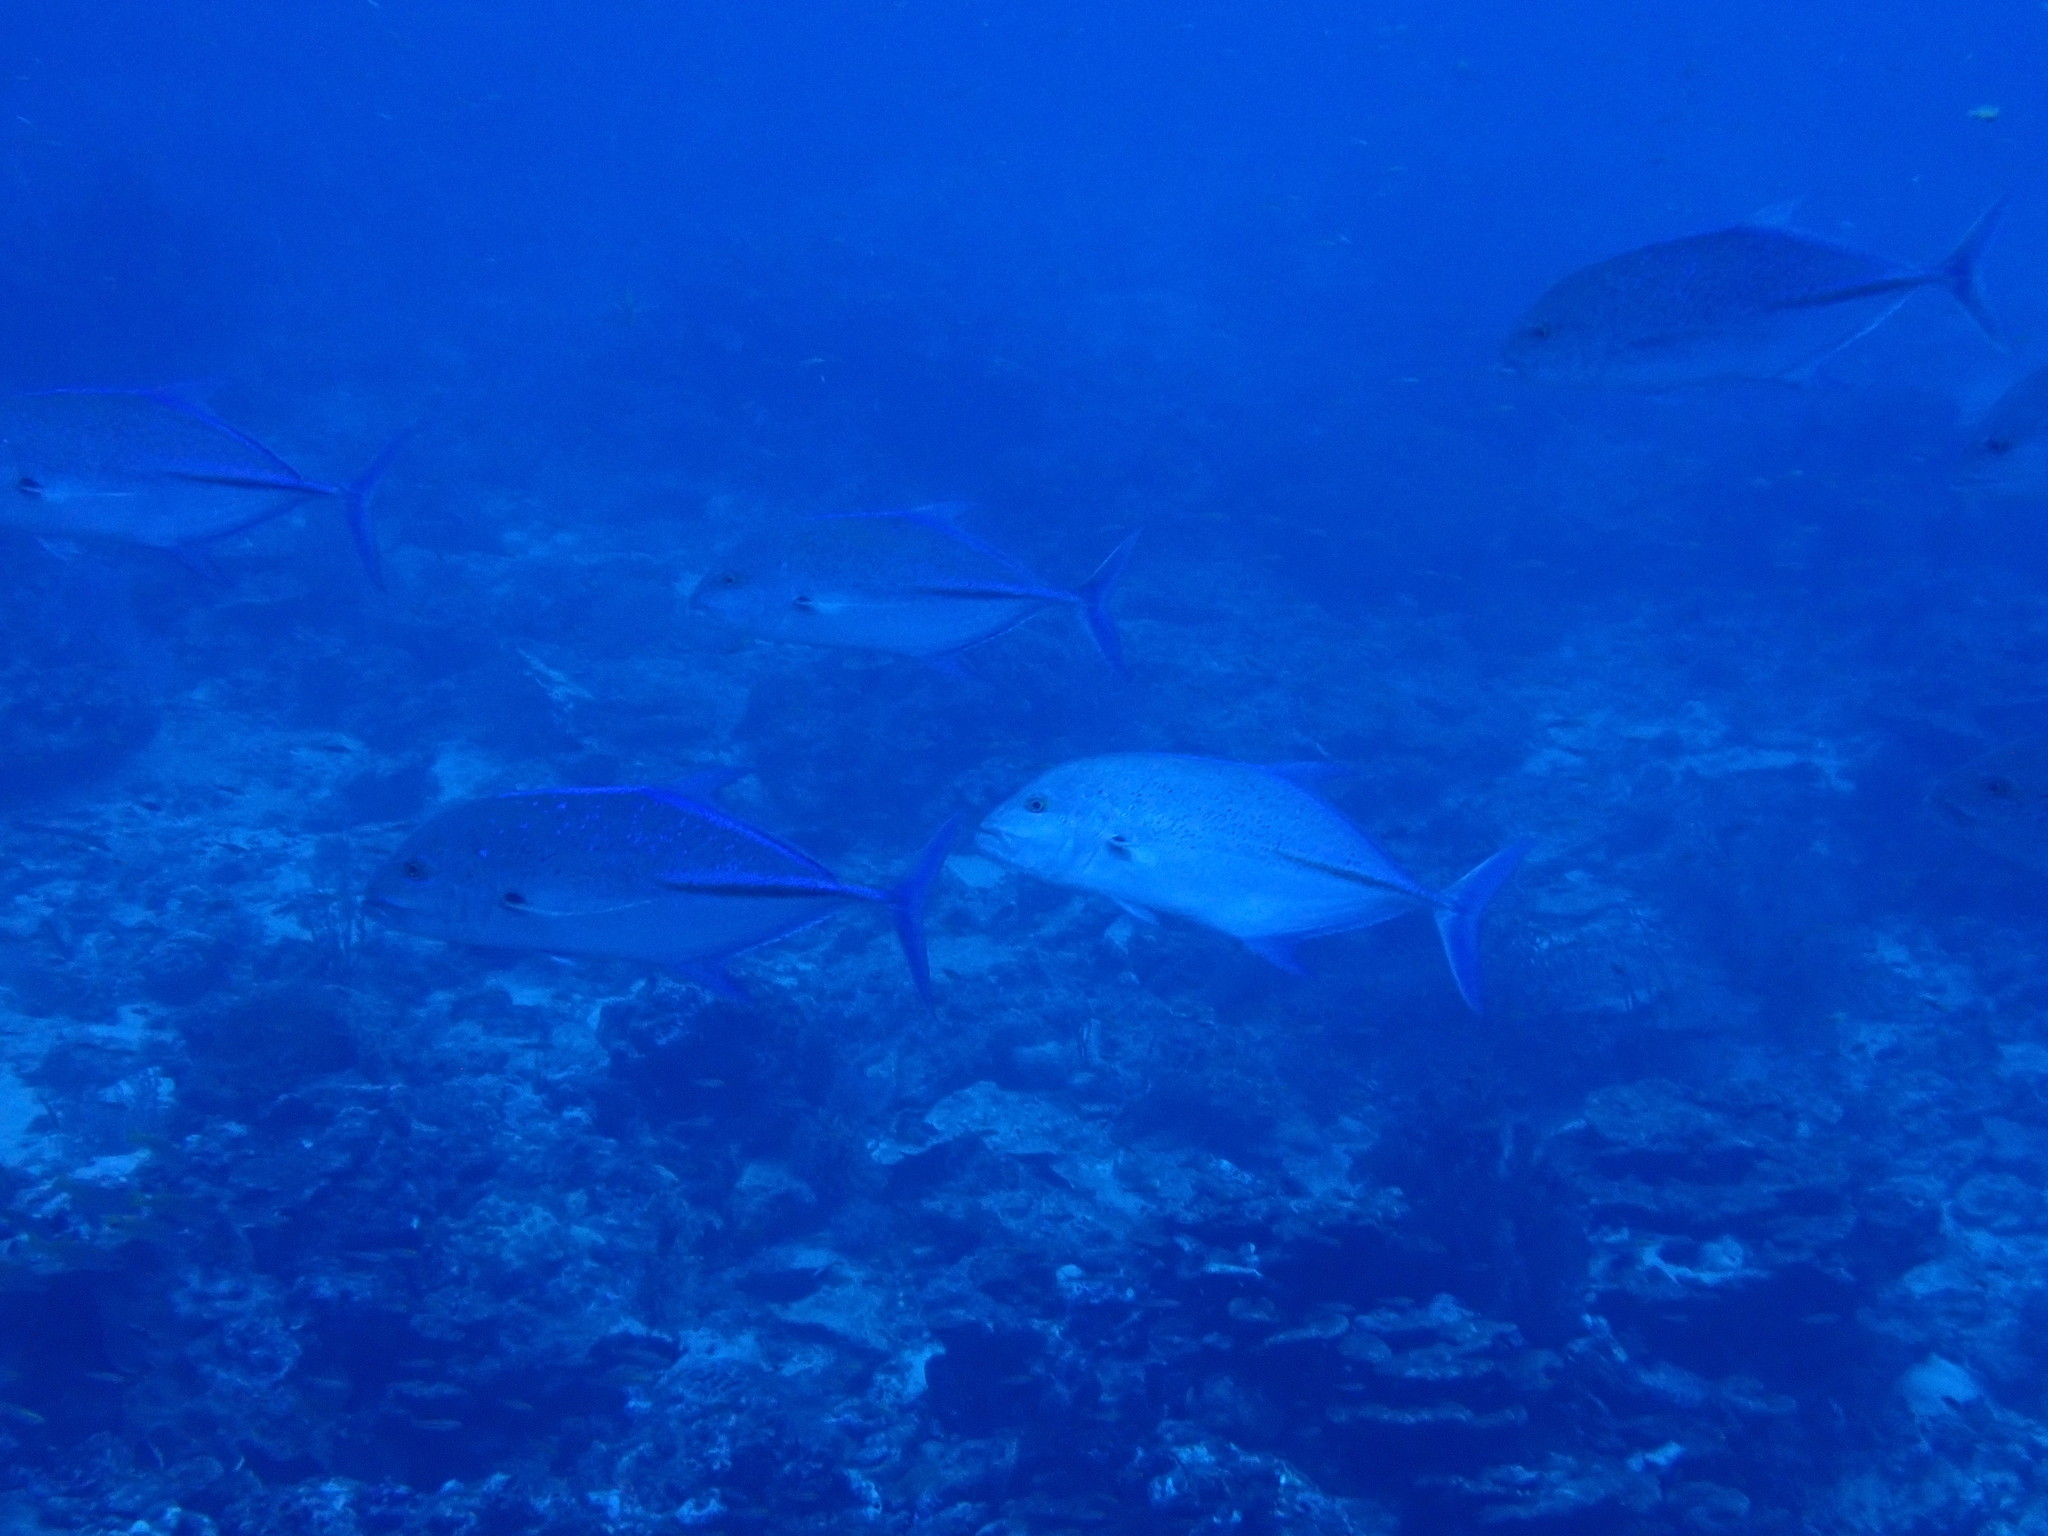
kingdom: Animalia
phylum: Chordata
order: Perciformes
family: Carangidae
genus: Caranx
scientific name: Caranx melampygus
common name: Bluefin trevally
